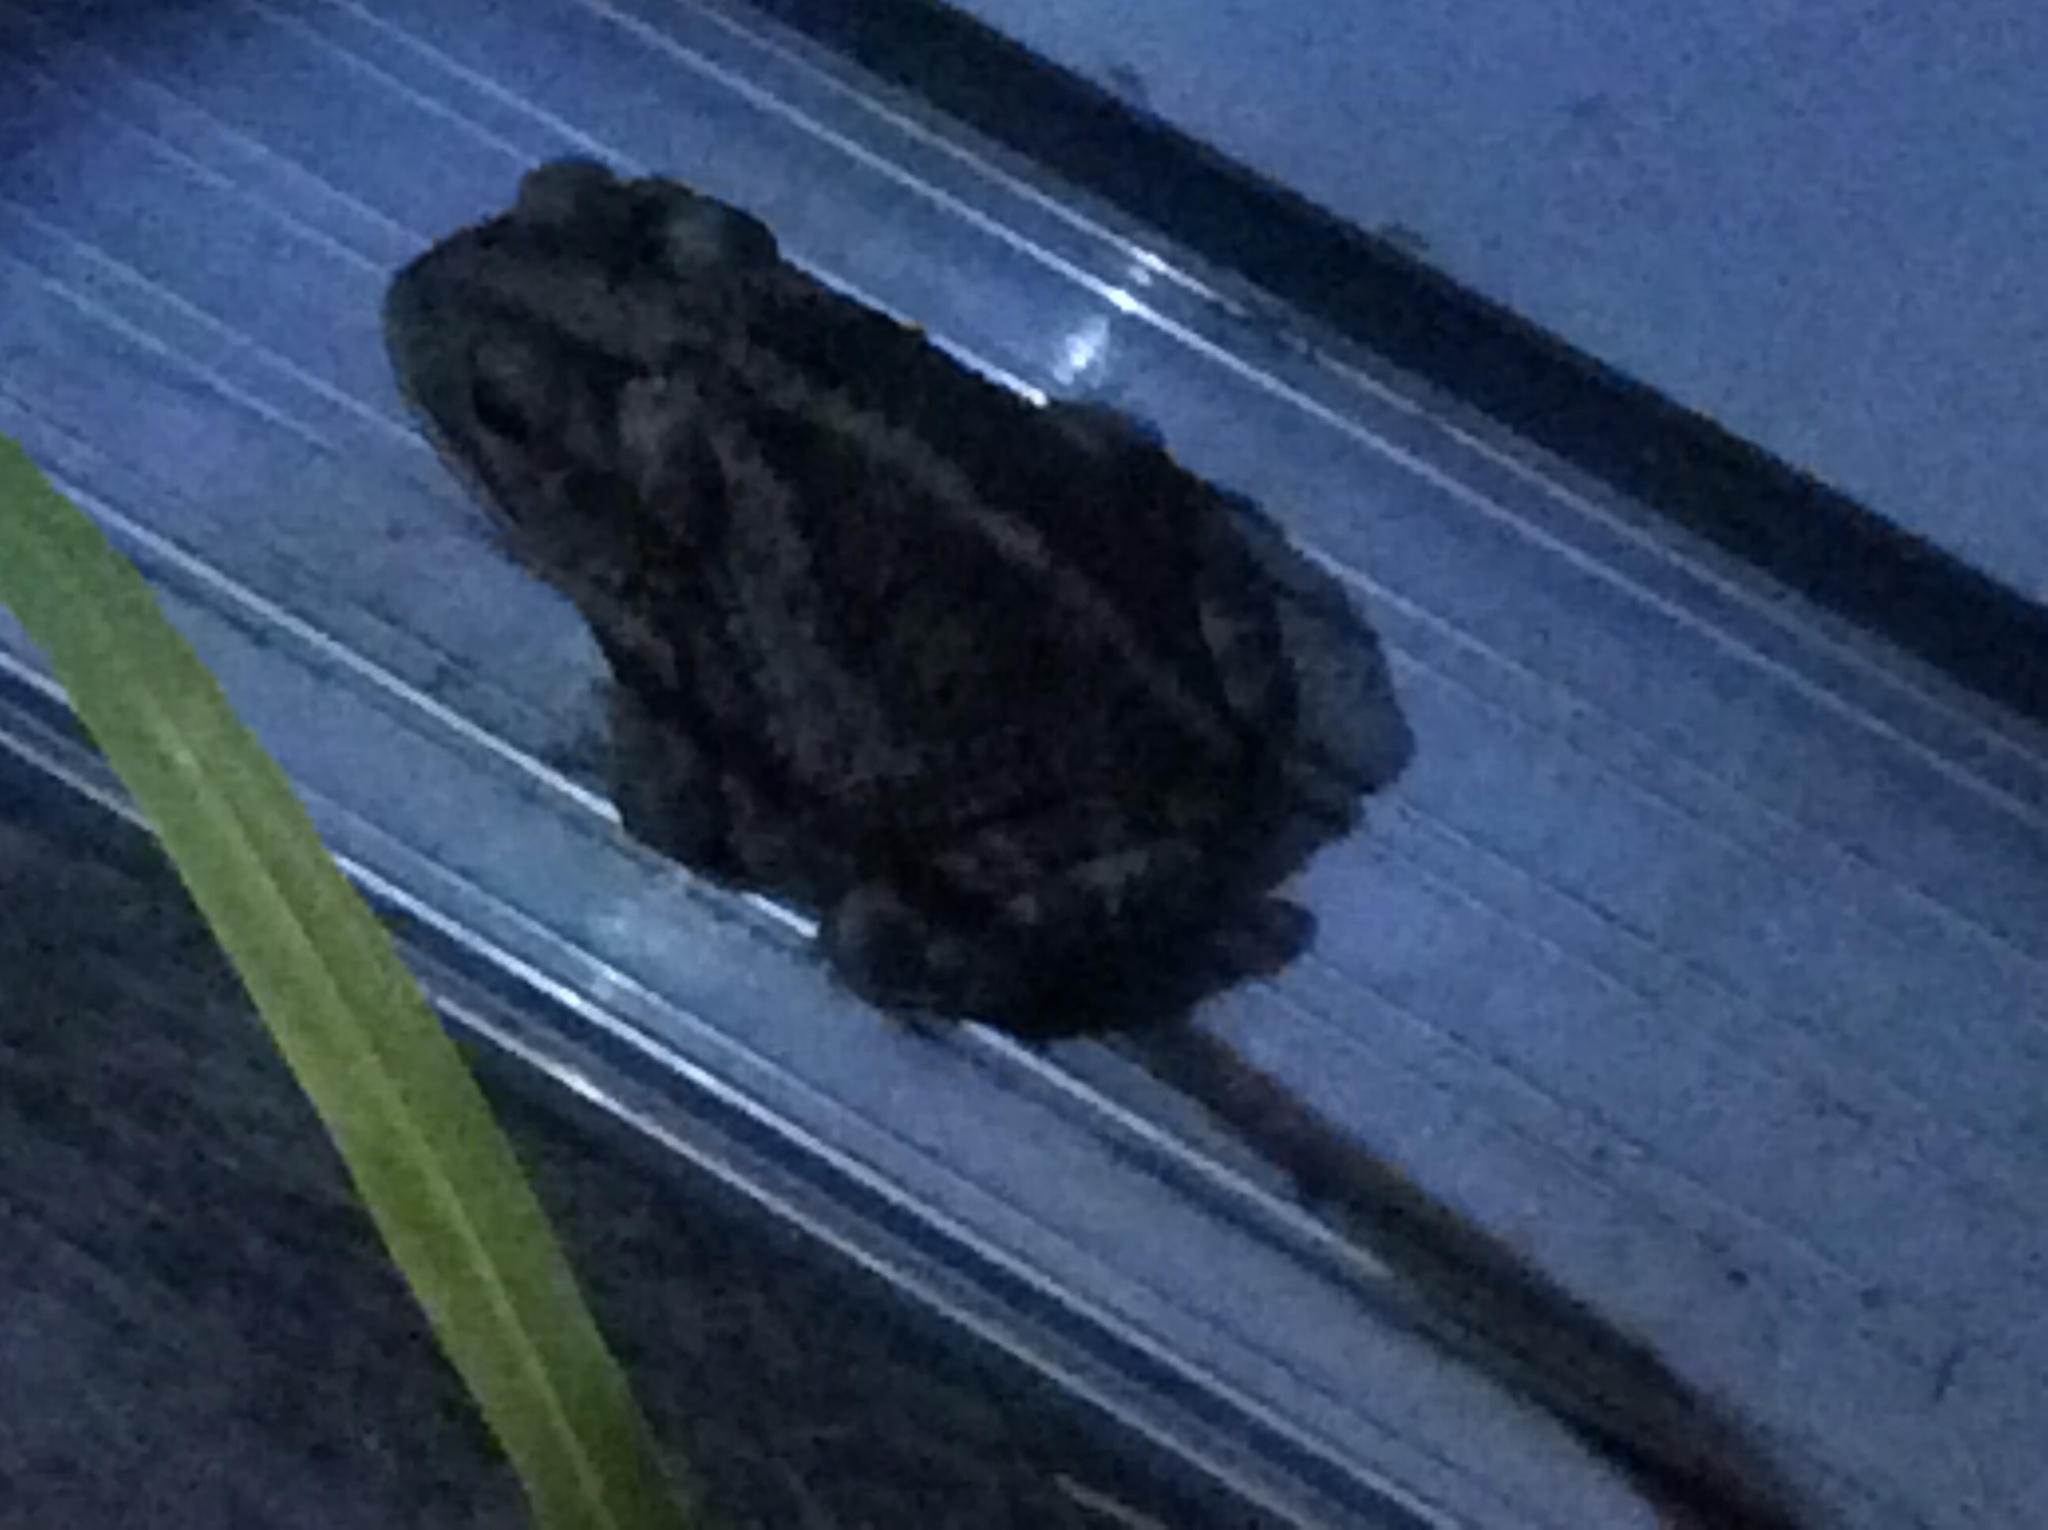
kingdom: Animalia
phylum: Chordata
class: Amphibia
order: Anura
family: Bufonidae
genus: Incilius
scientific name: Incilius nebulifer
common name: Gulf coast toad
